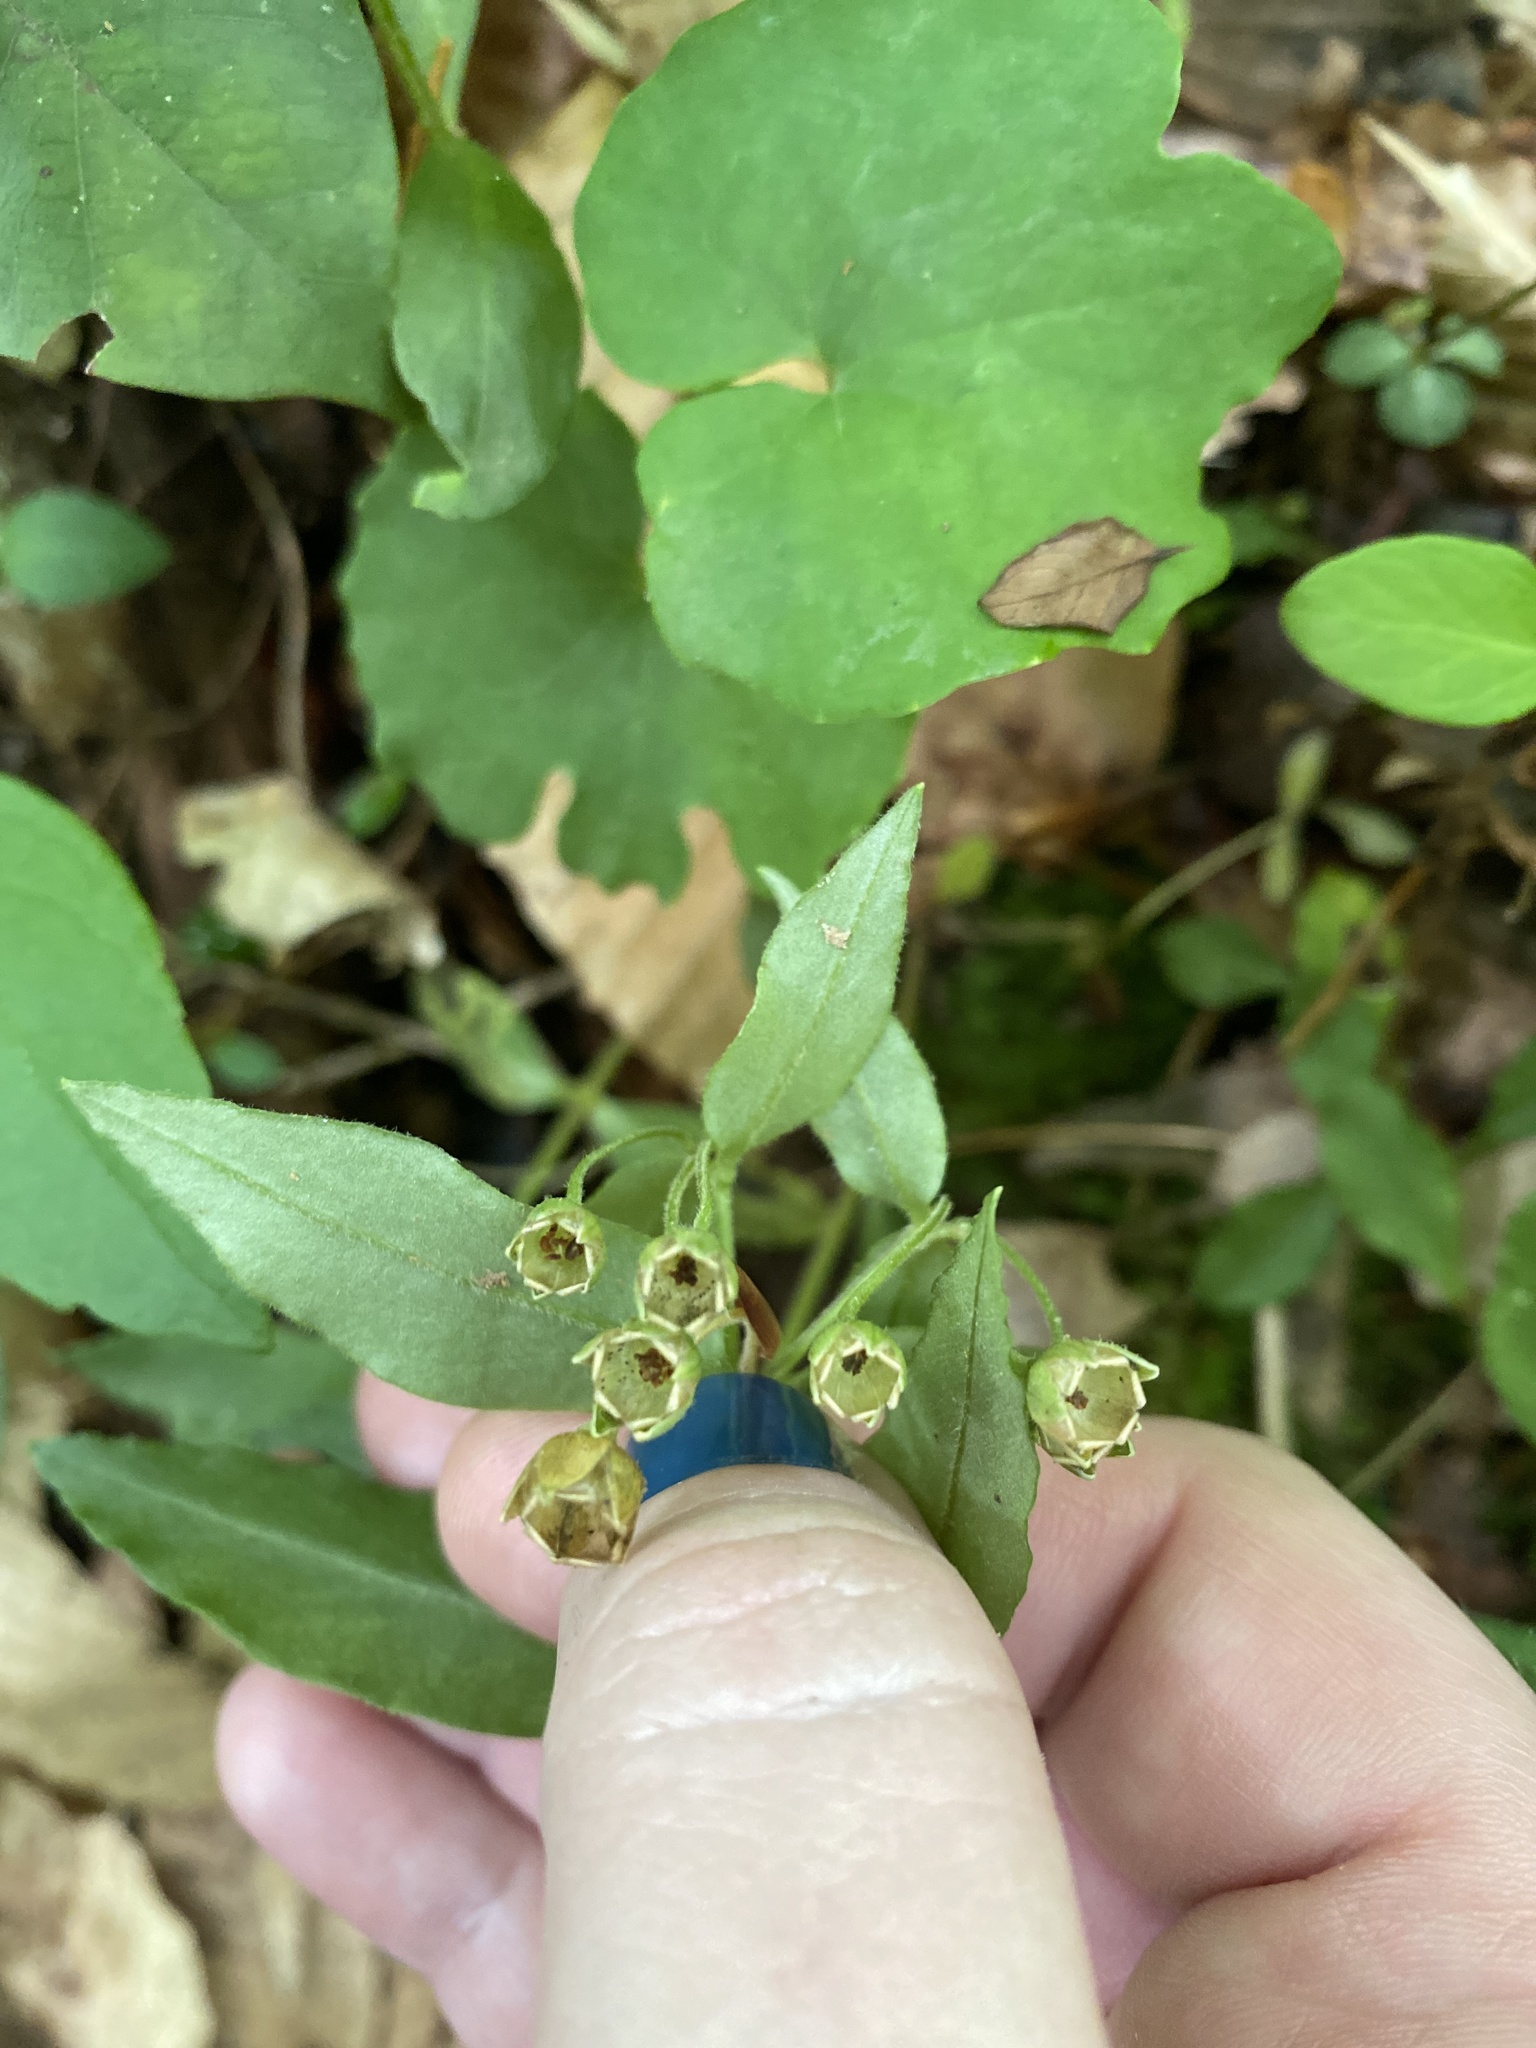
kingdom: Plantae
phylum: Tracheophyta
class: Magnoliopsida
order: Caryophyllales
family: Caryophyllaceae
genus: Stellaria
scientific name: Stellaria pubera
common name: Star chickweed
